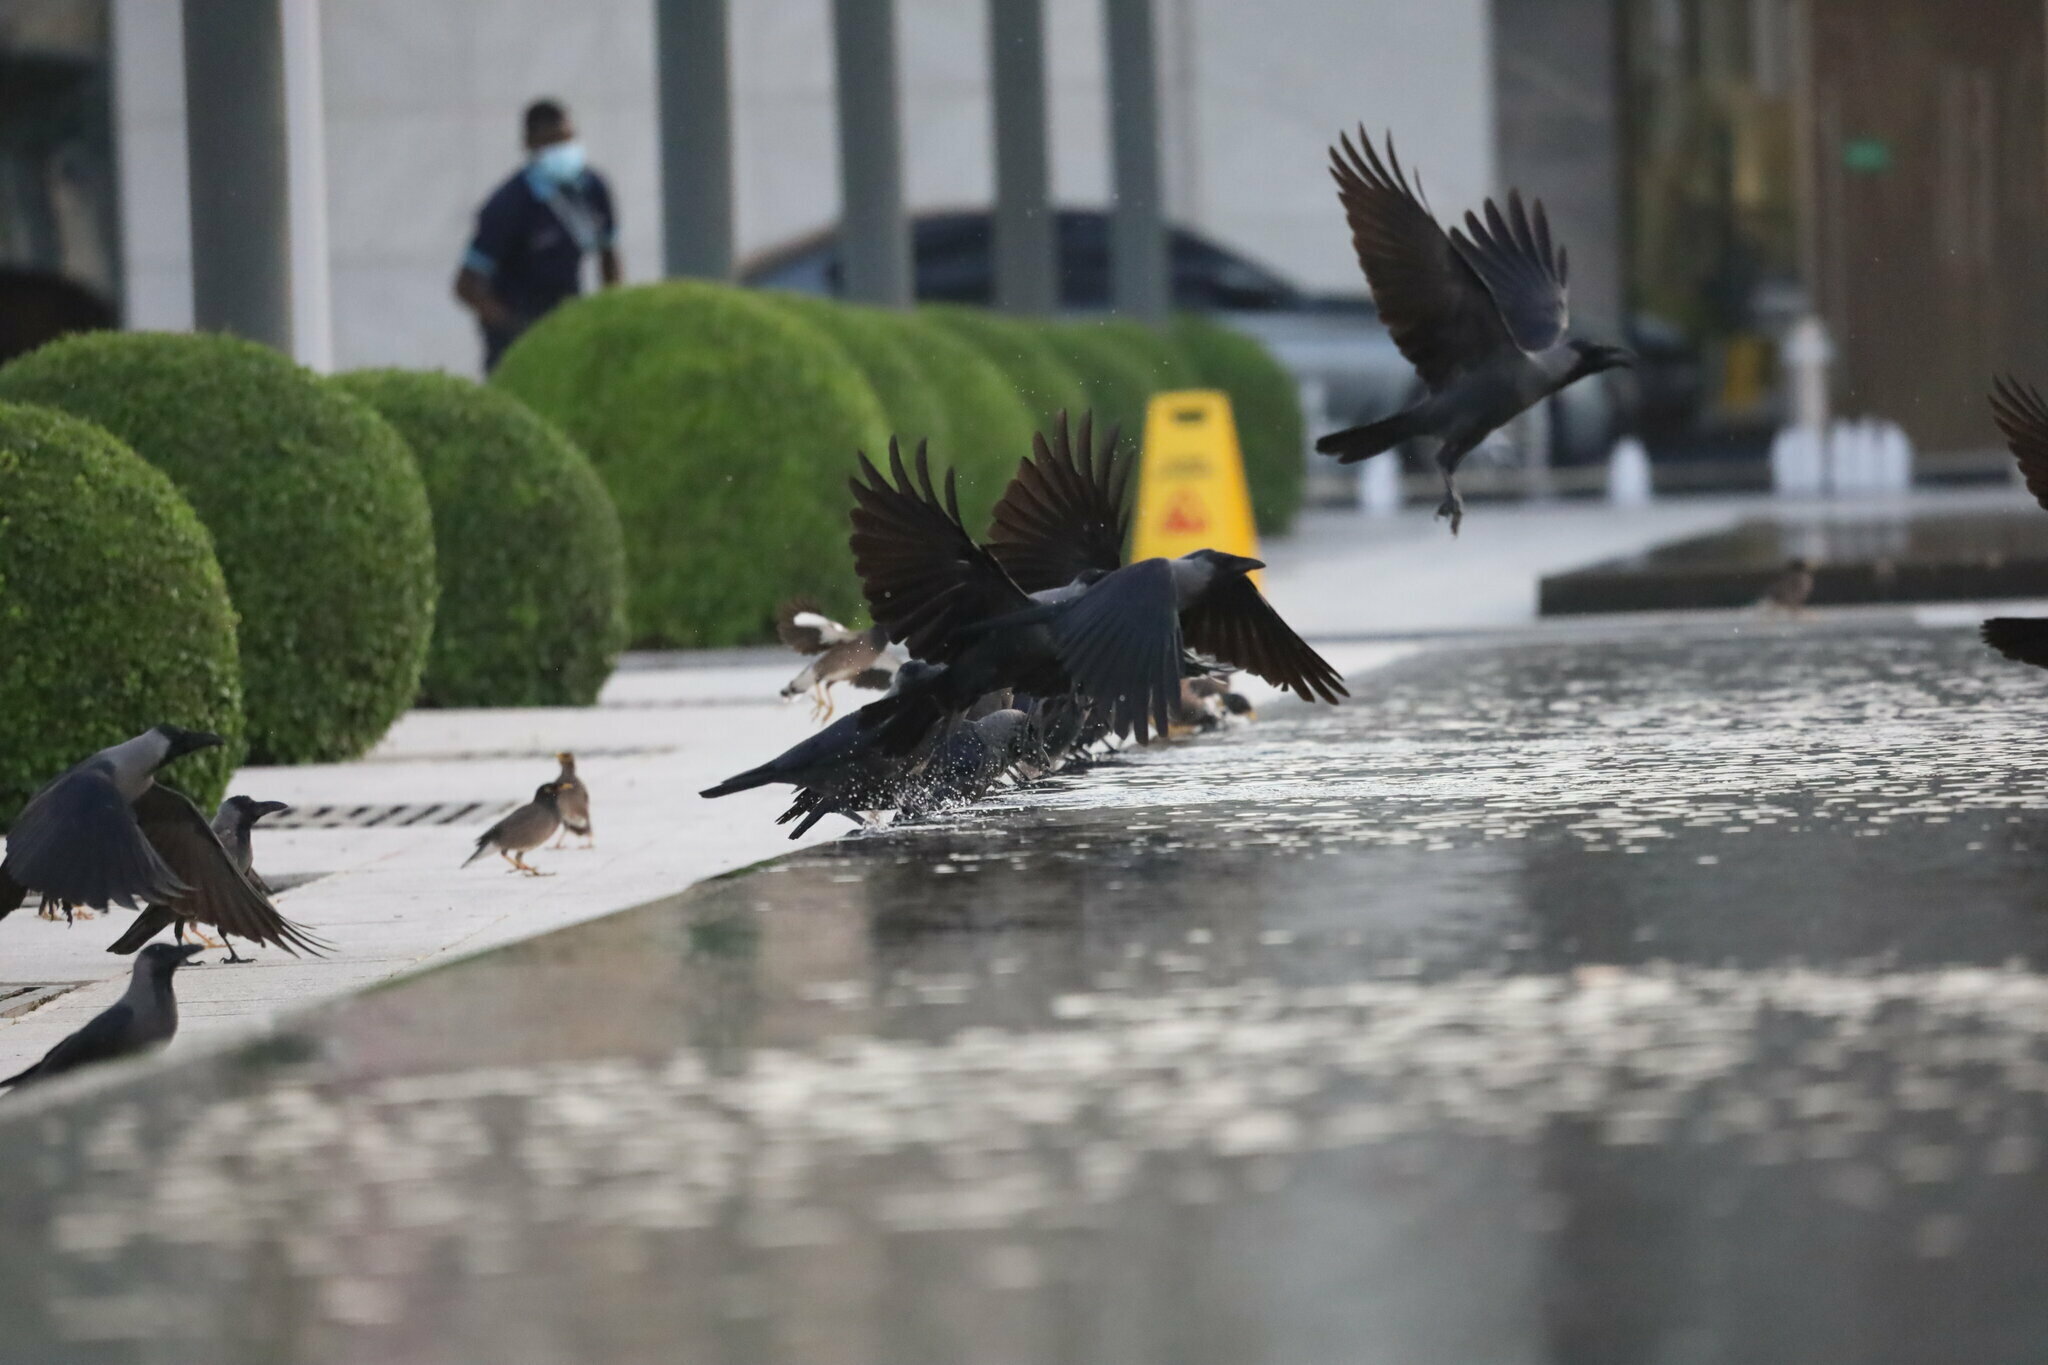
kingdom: Animalia
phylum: Chordata
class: Aves
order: Passeriformes
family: Corvidae
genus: Corvus
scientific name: Corvus splendens
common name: House crow
